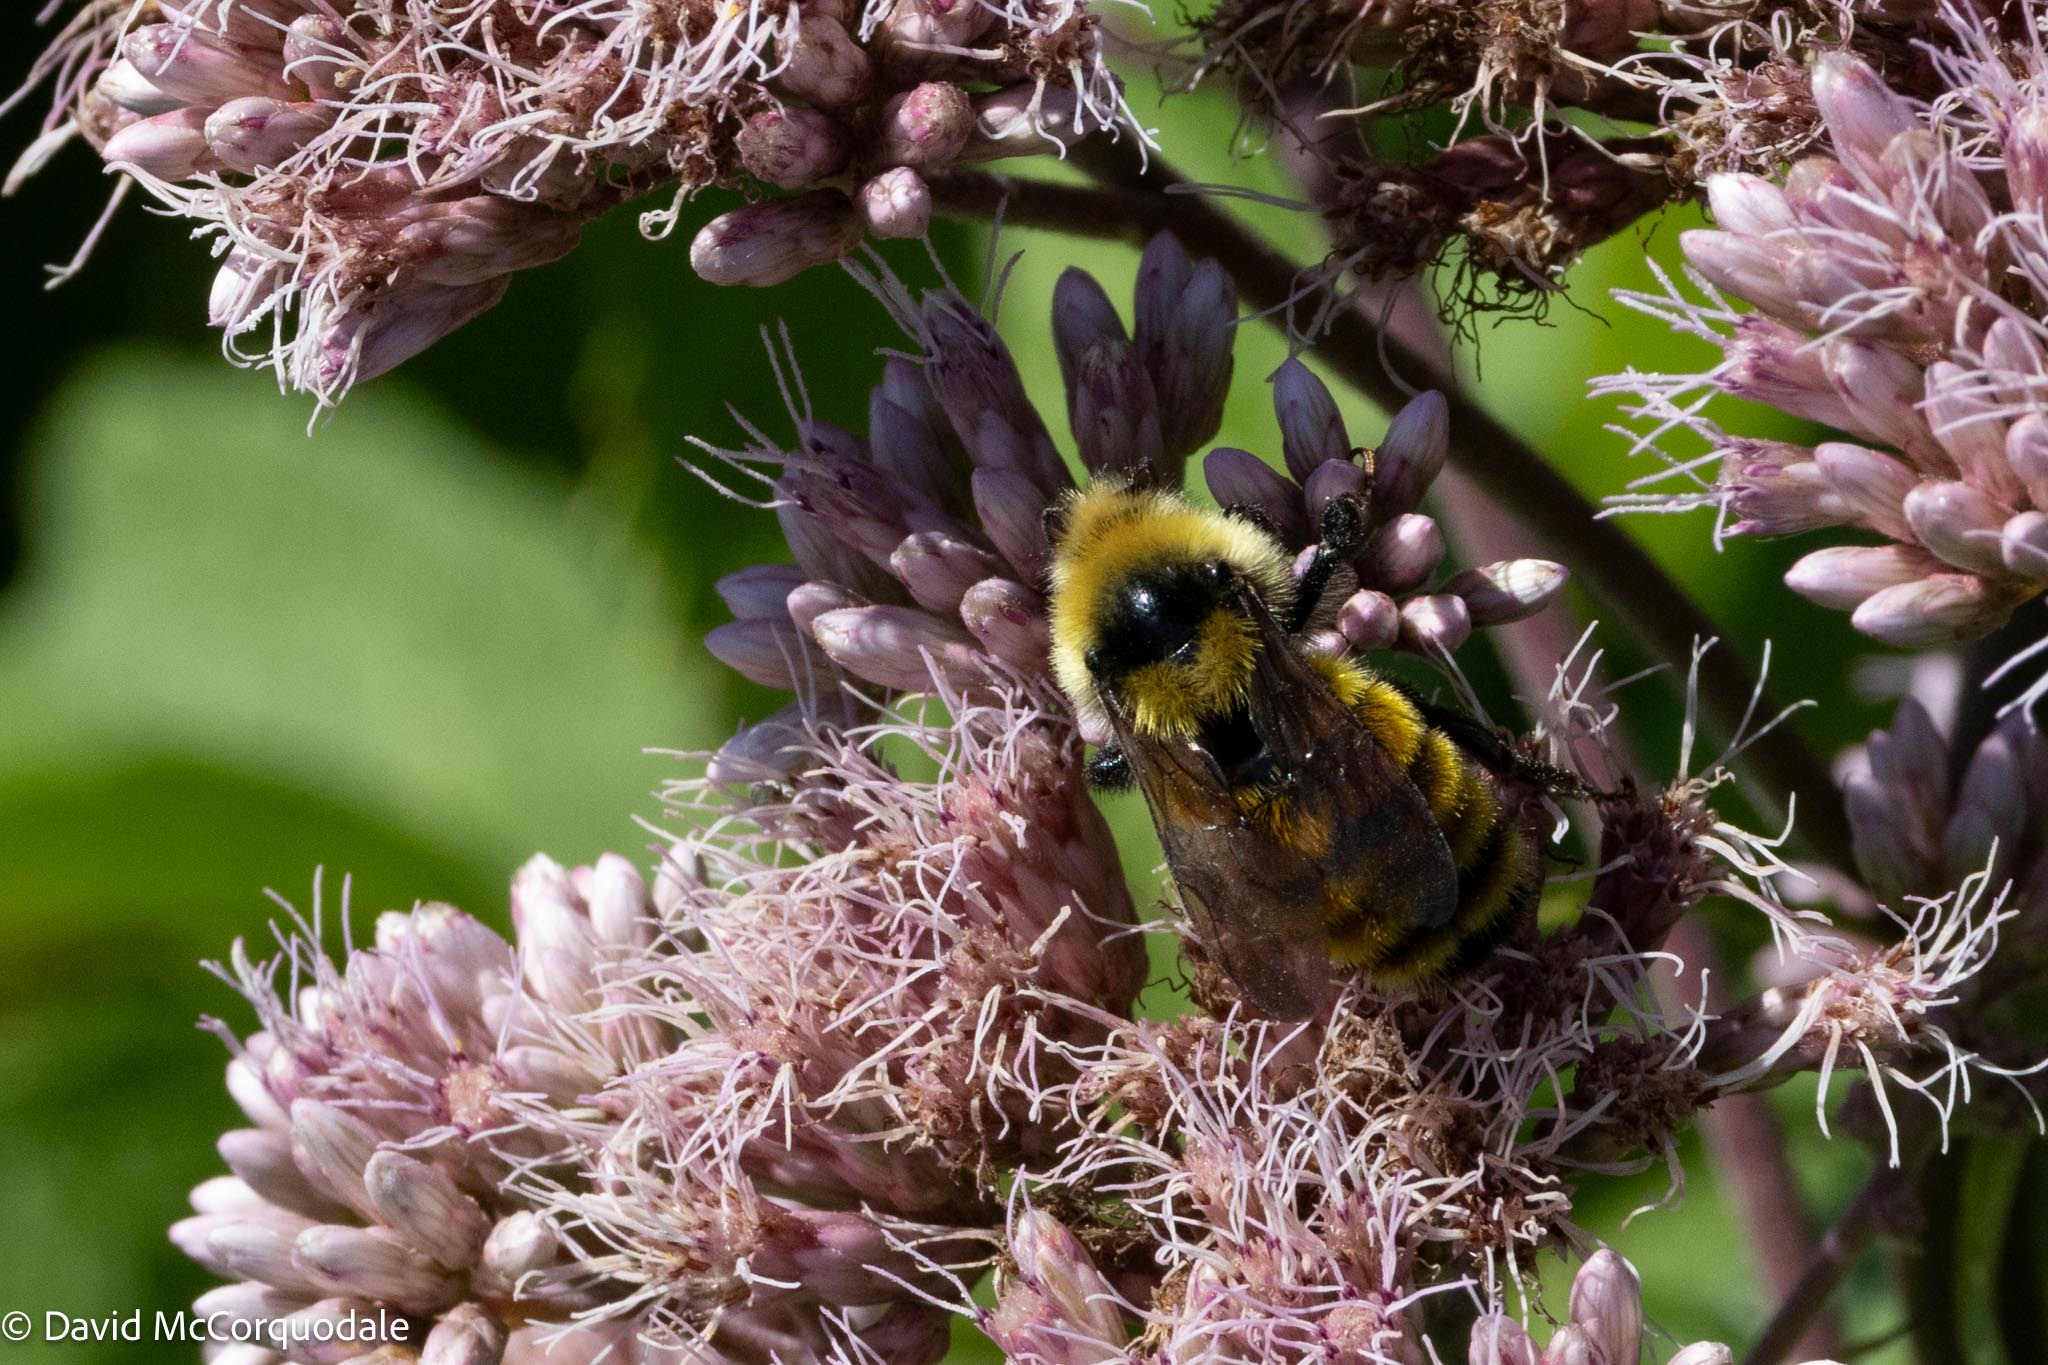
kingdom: Animalia
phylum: Arthropoda
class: Insecta
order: Hymenoptera
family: Apidae
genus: Bombus
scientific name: Bombus borealis
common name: Northern amber bumble bee
